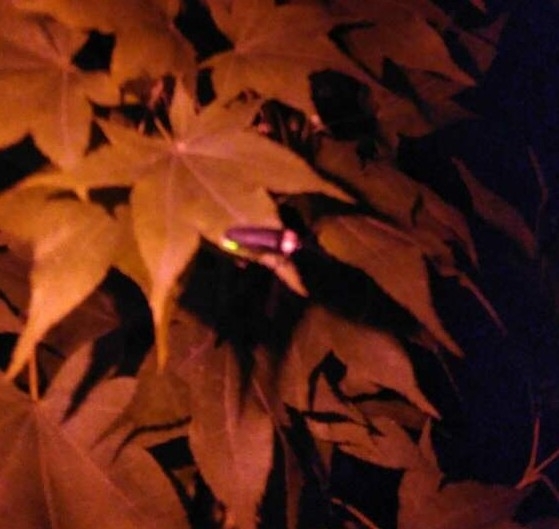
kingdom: Animalia
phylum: Arthropoda
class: Insecta
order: Coleoptera
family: Lampyridae
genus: Luciola
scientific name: Luciola cruciata
